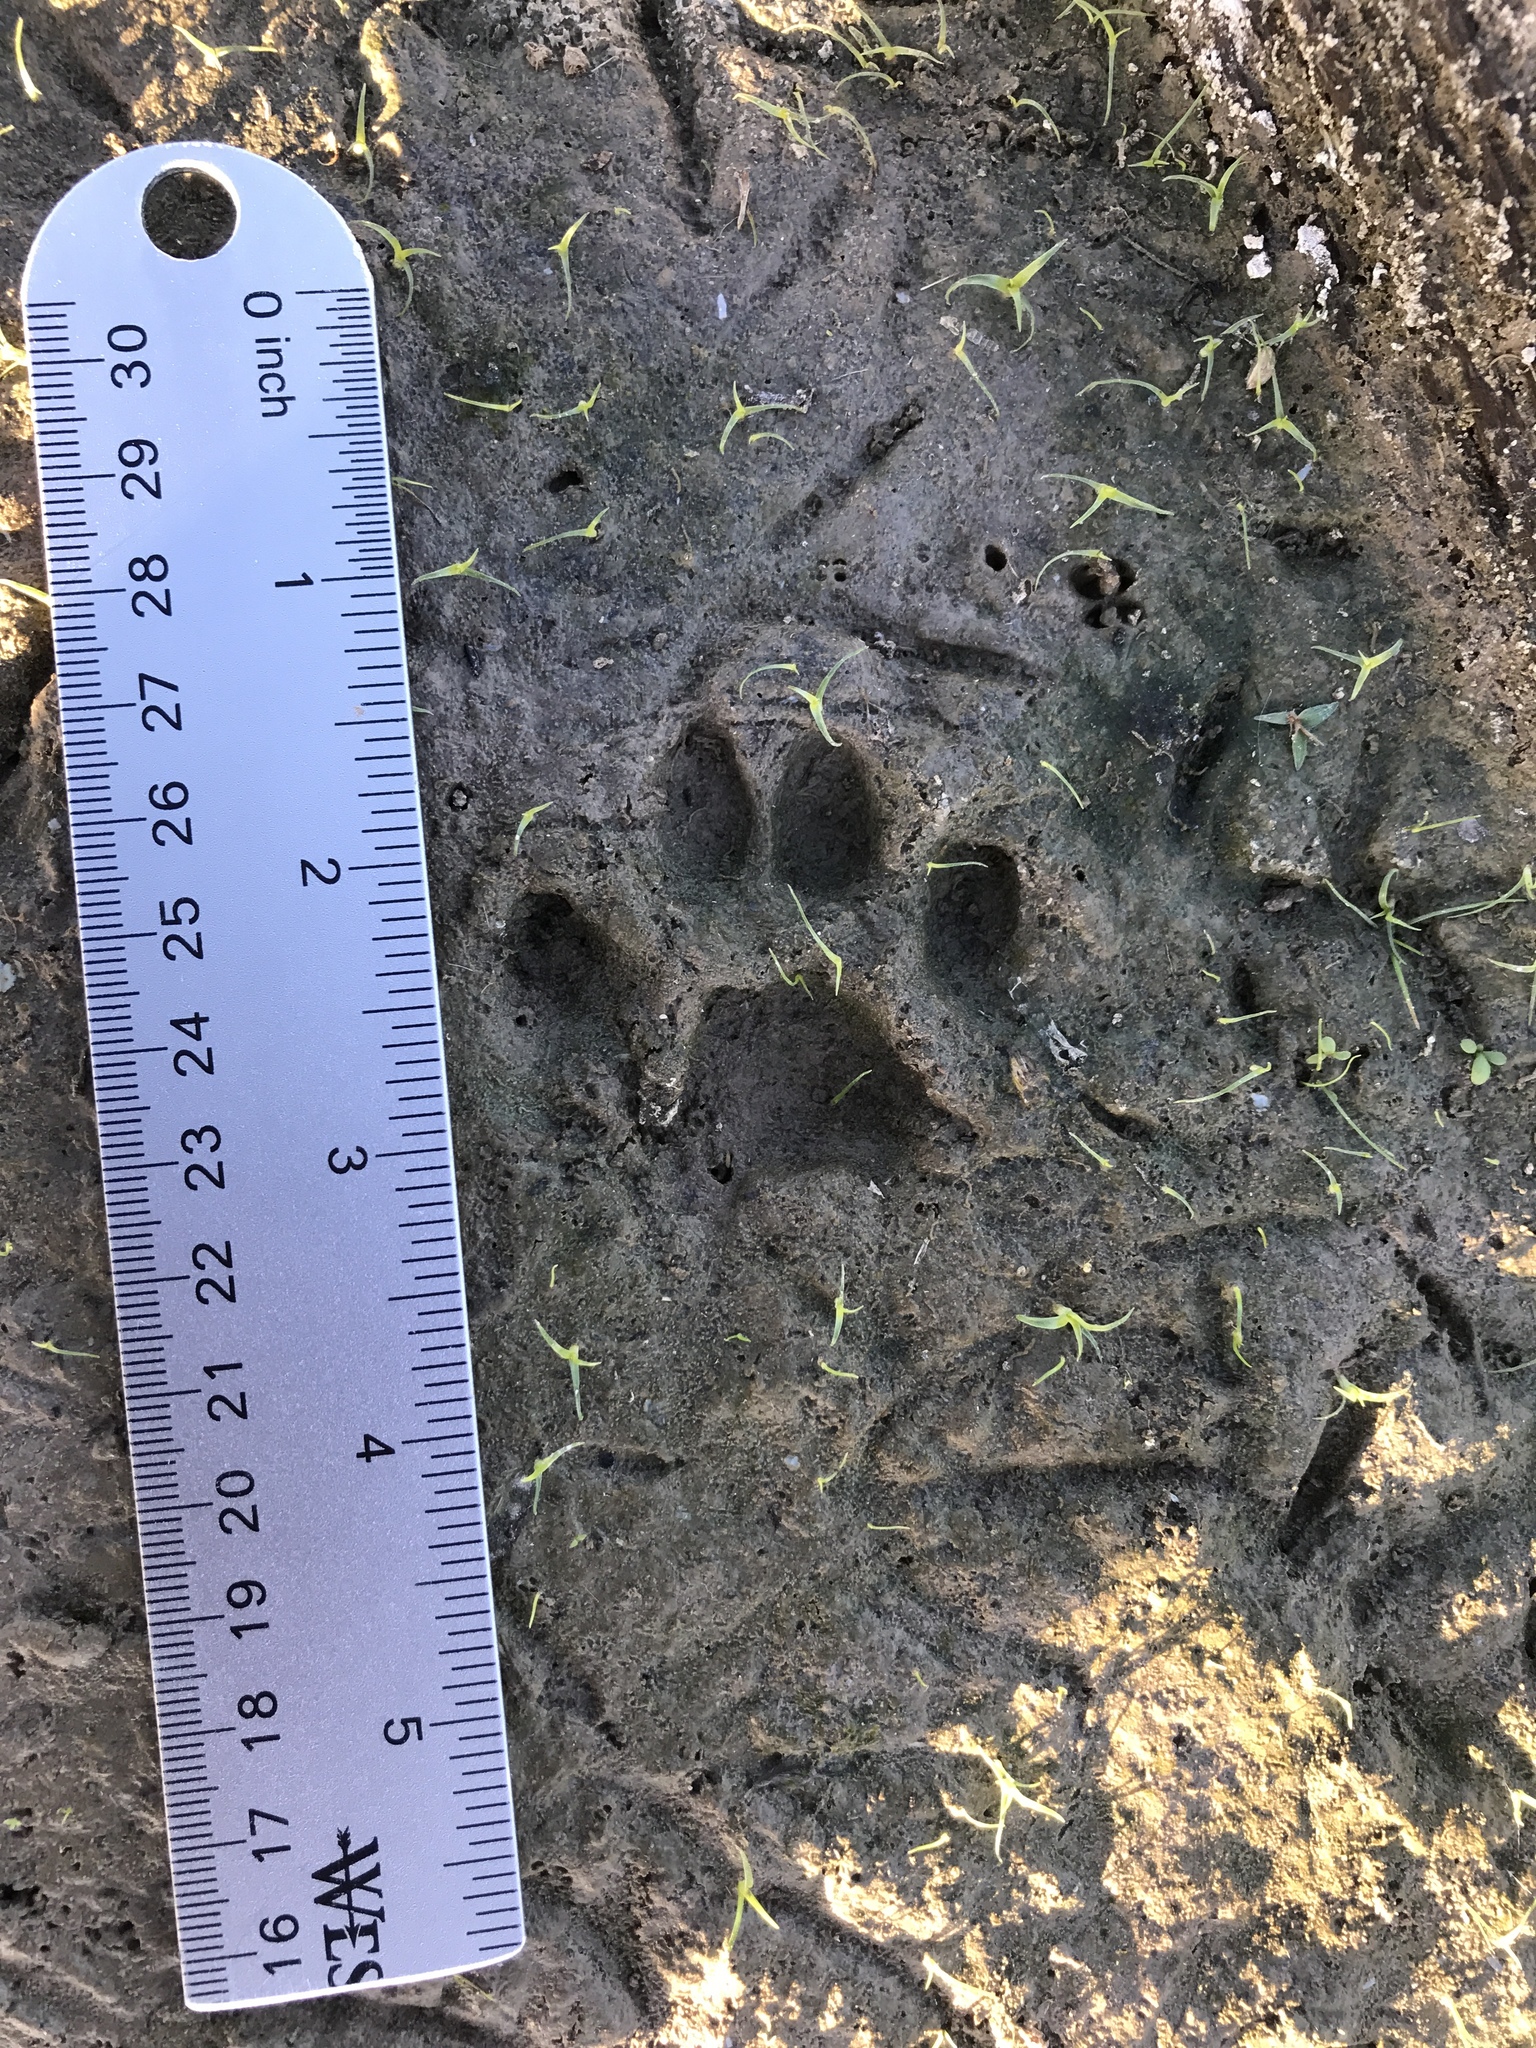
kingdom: Animalia
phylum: Chordata
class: Mammalia
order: Carnivora
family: Felidae
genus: Lynx
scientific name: Lynx rufus
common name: Bobcat
